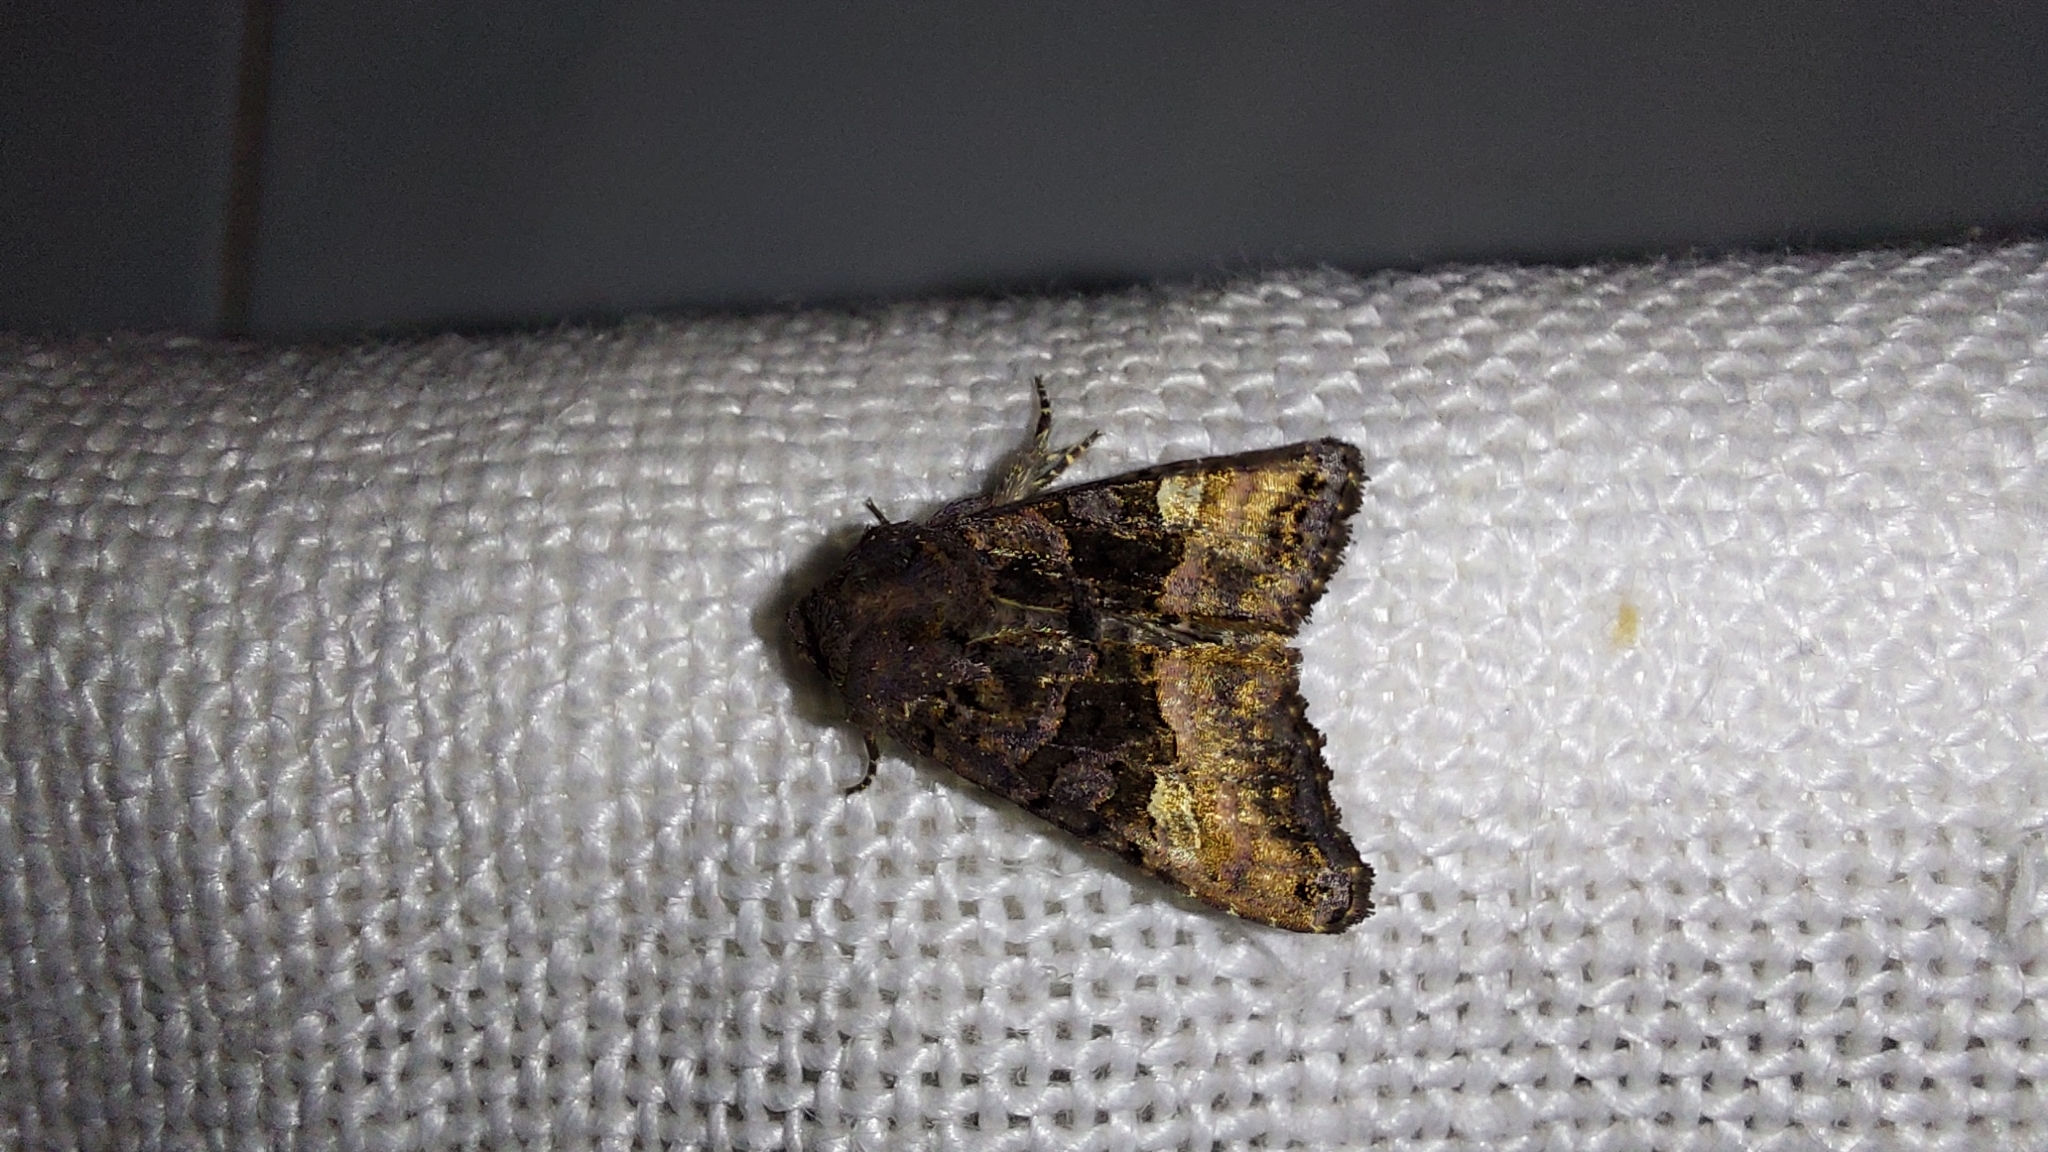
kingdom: Animalia
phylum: Arthropoda
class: Insecta
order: Lepidoptera
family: Noctuidae
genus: Euplexia
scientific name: Euplexia lucipara
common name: Small angle shades
